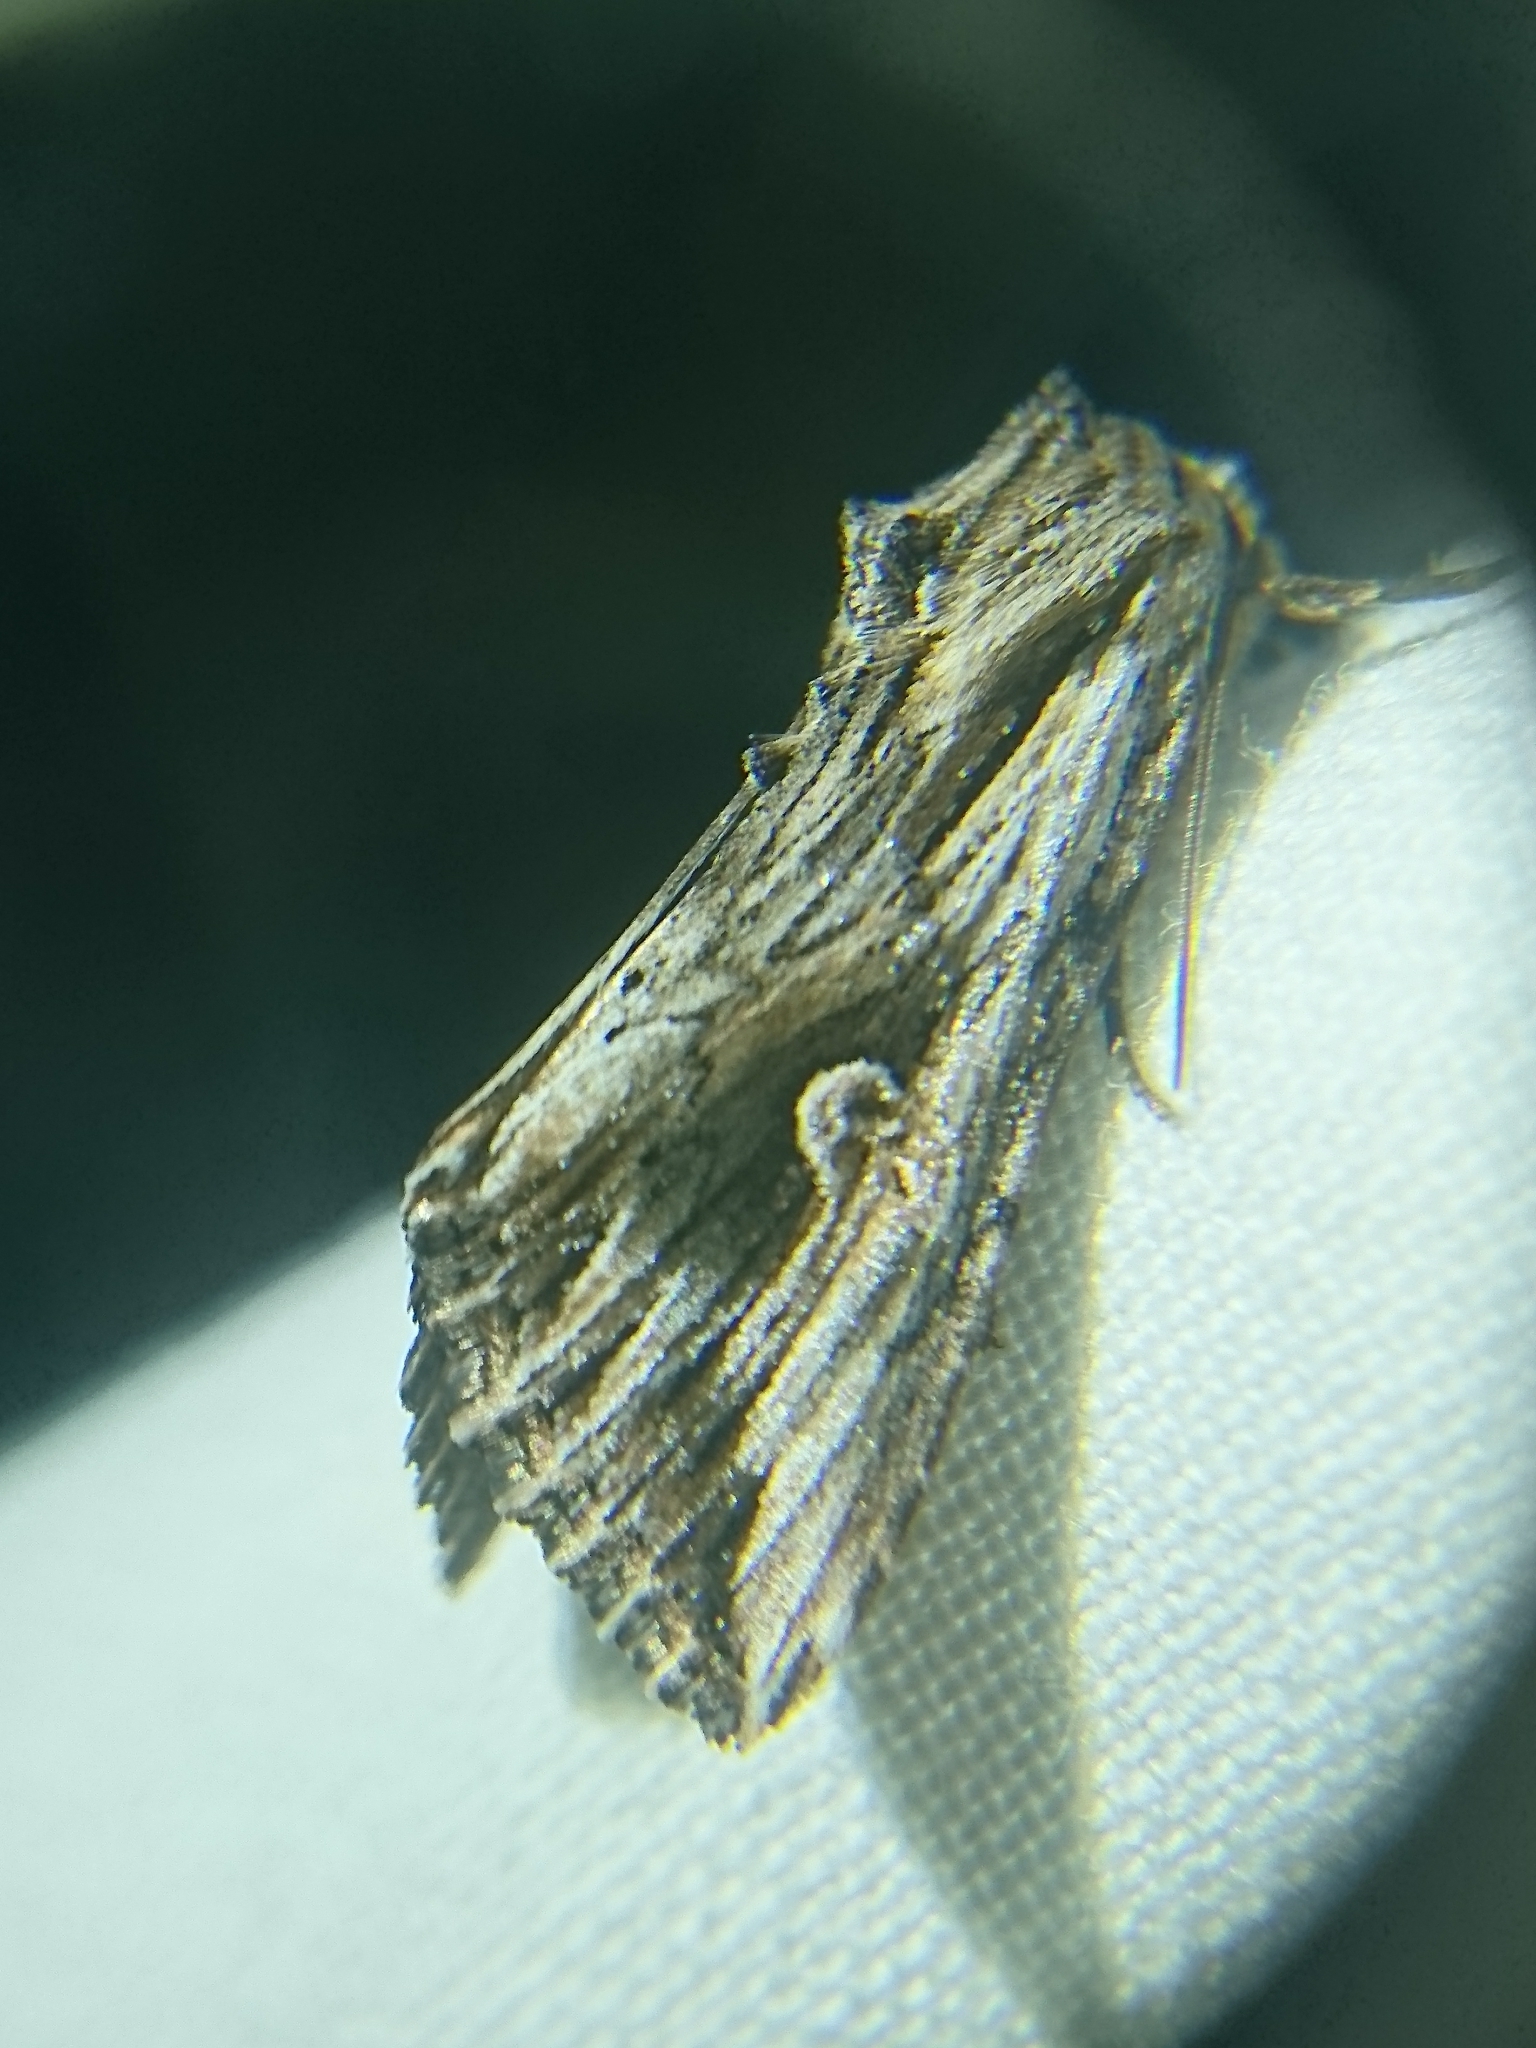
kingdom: Animalia
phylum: Arthropoda
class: Insecta
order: Lepidoptera
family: Noctuidae
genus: Nedra
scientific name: Nedra ramosula
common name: Gray half-spot
